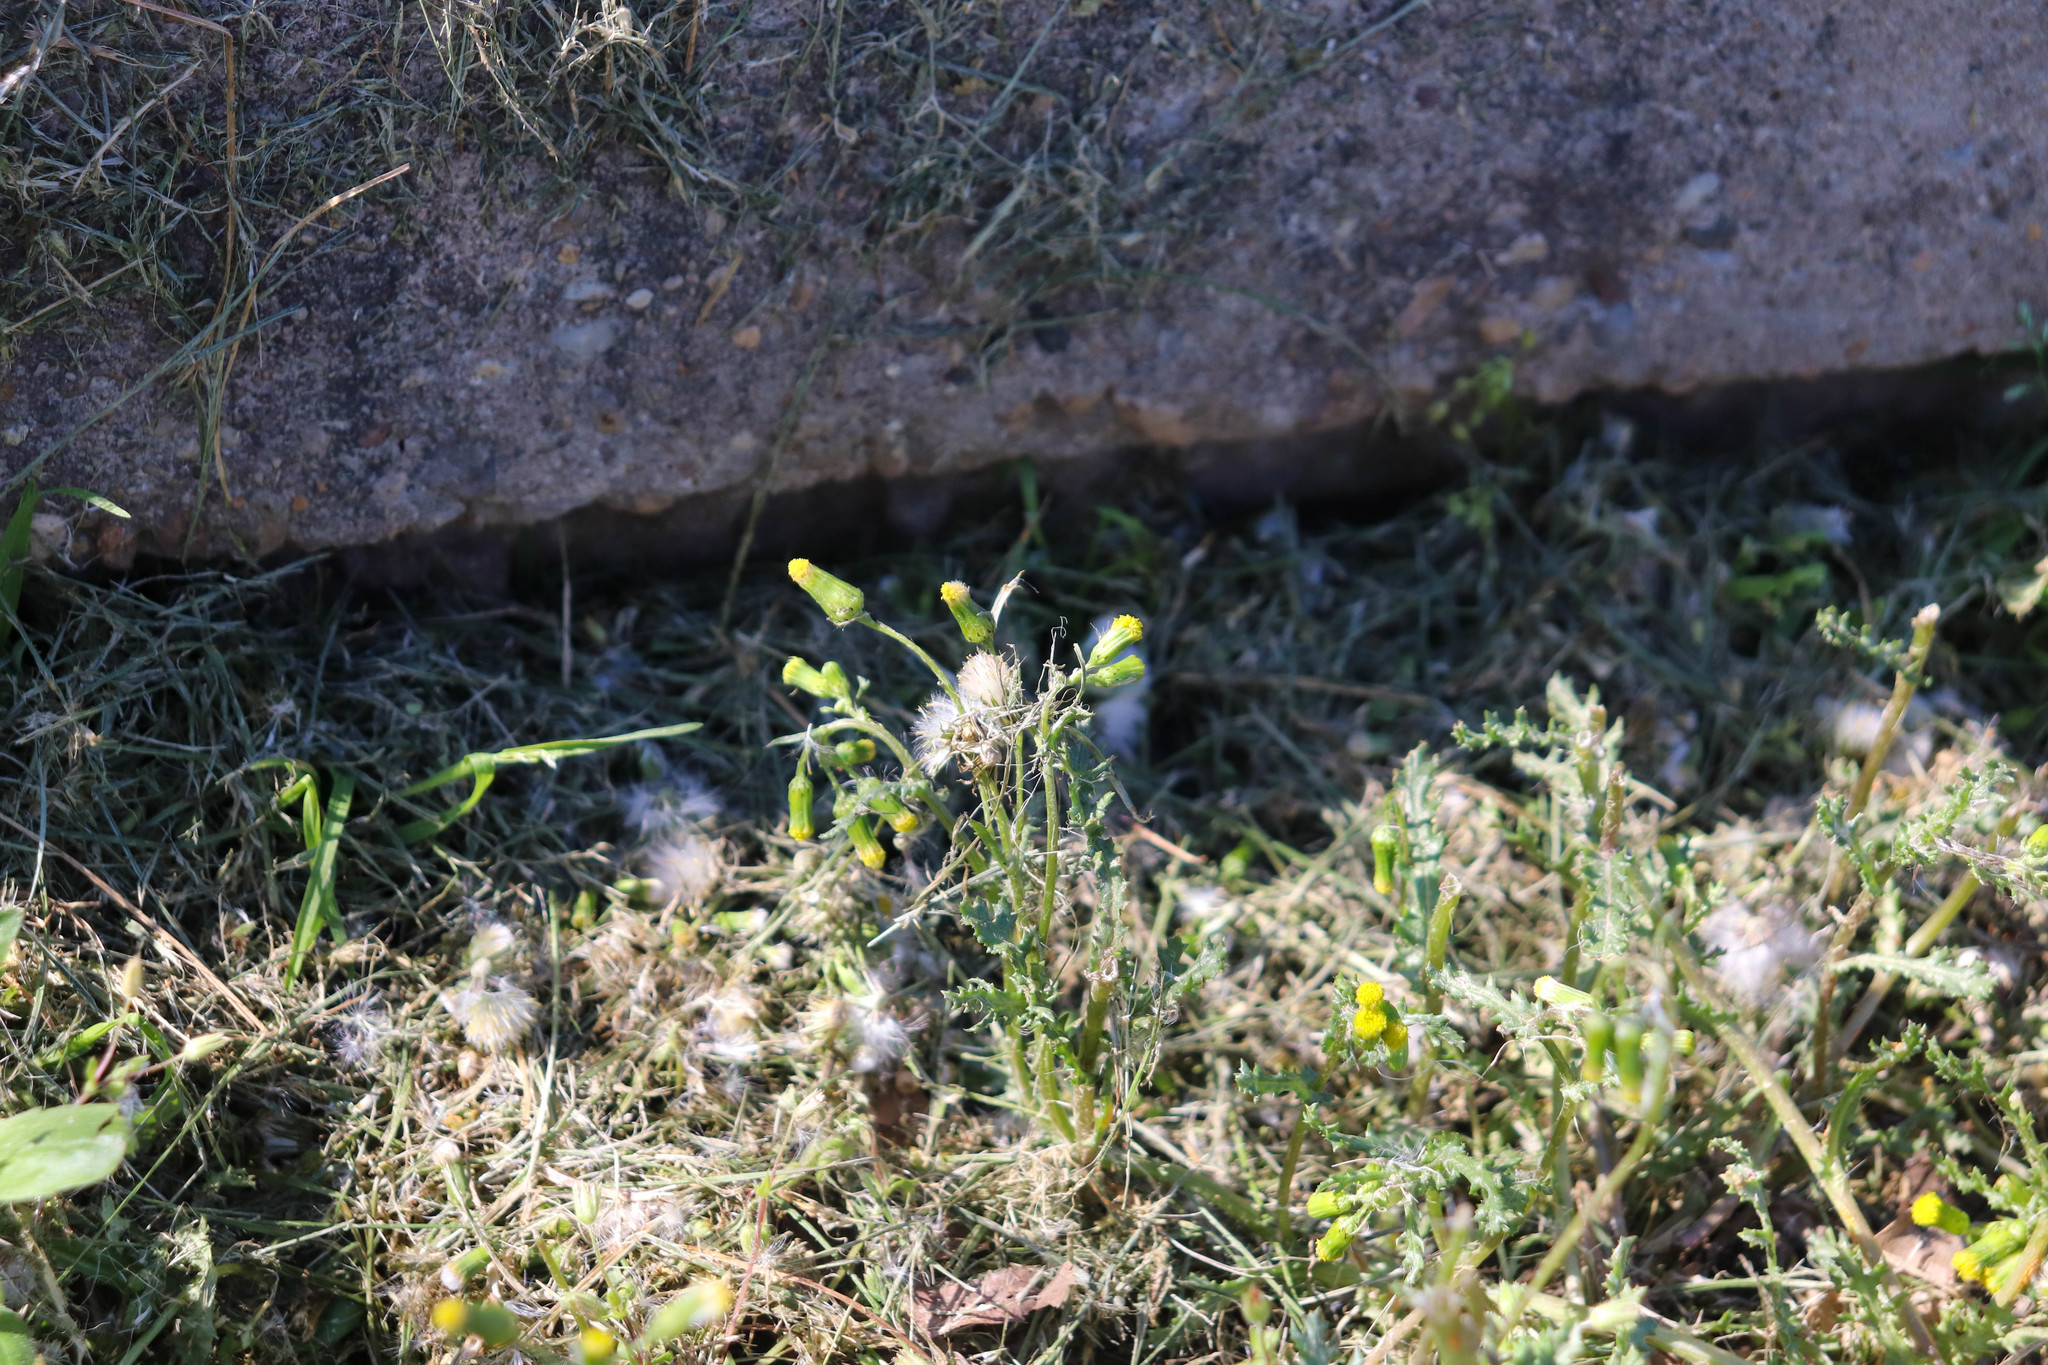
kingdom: Plantae
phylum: Tracheophyta
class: Magnoliopsida
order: Asterales
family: Asteraceae
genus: Senecio
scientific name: Senecio vulgaris
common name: Old-man-in-the-spring
